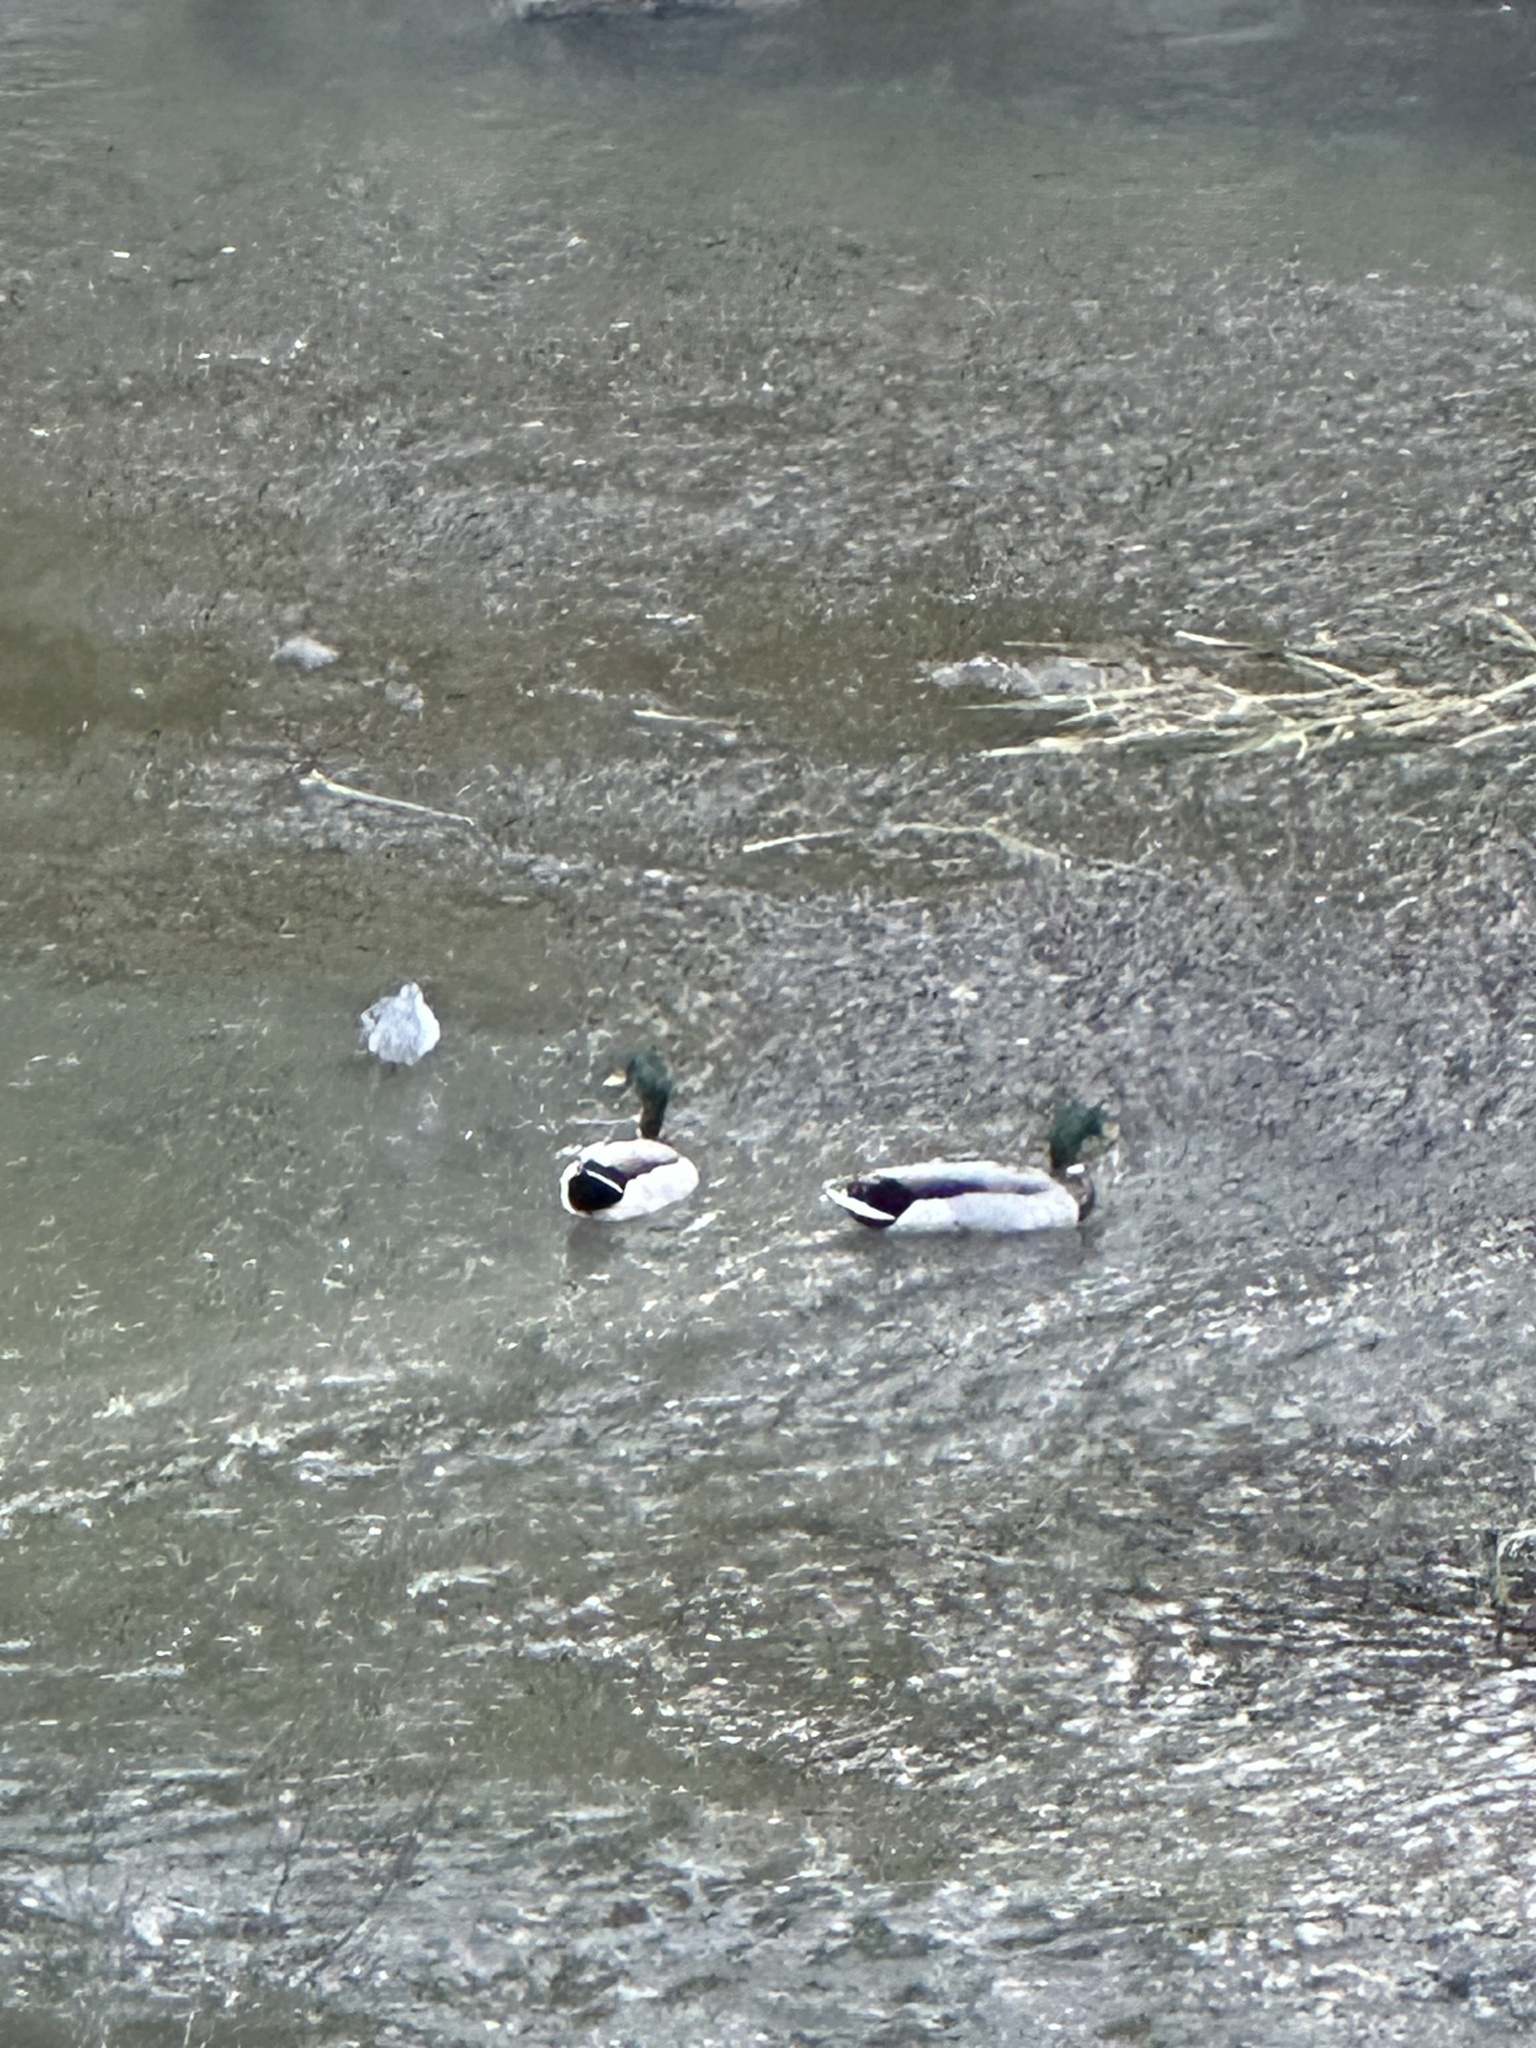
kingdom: Animalia
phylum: Chordata
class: Aves
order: Anseriformes
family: Anatidae
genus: Anas
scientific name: Anas platyrhynchos
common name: Mallard
